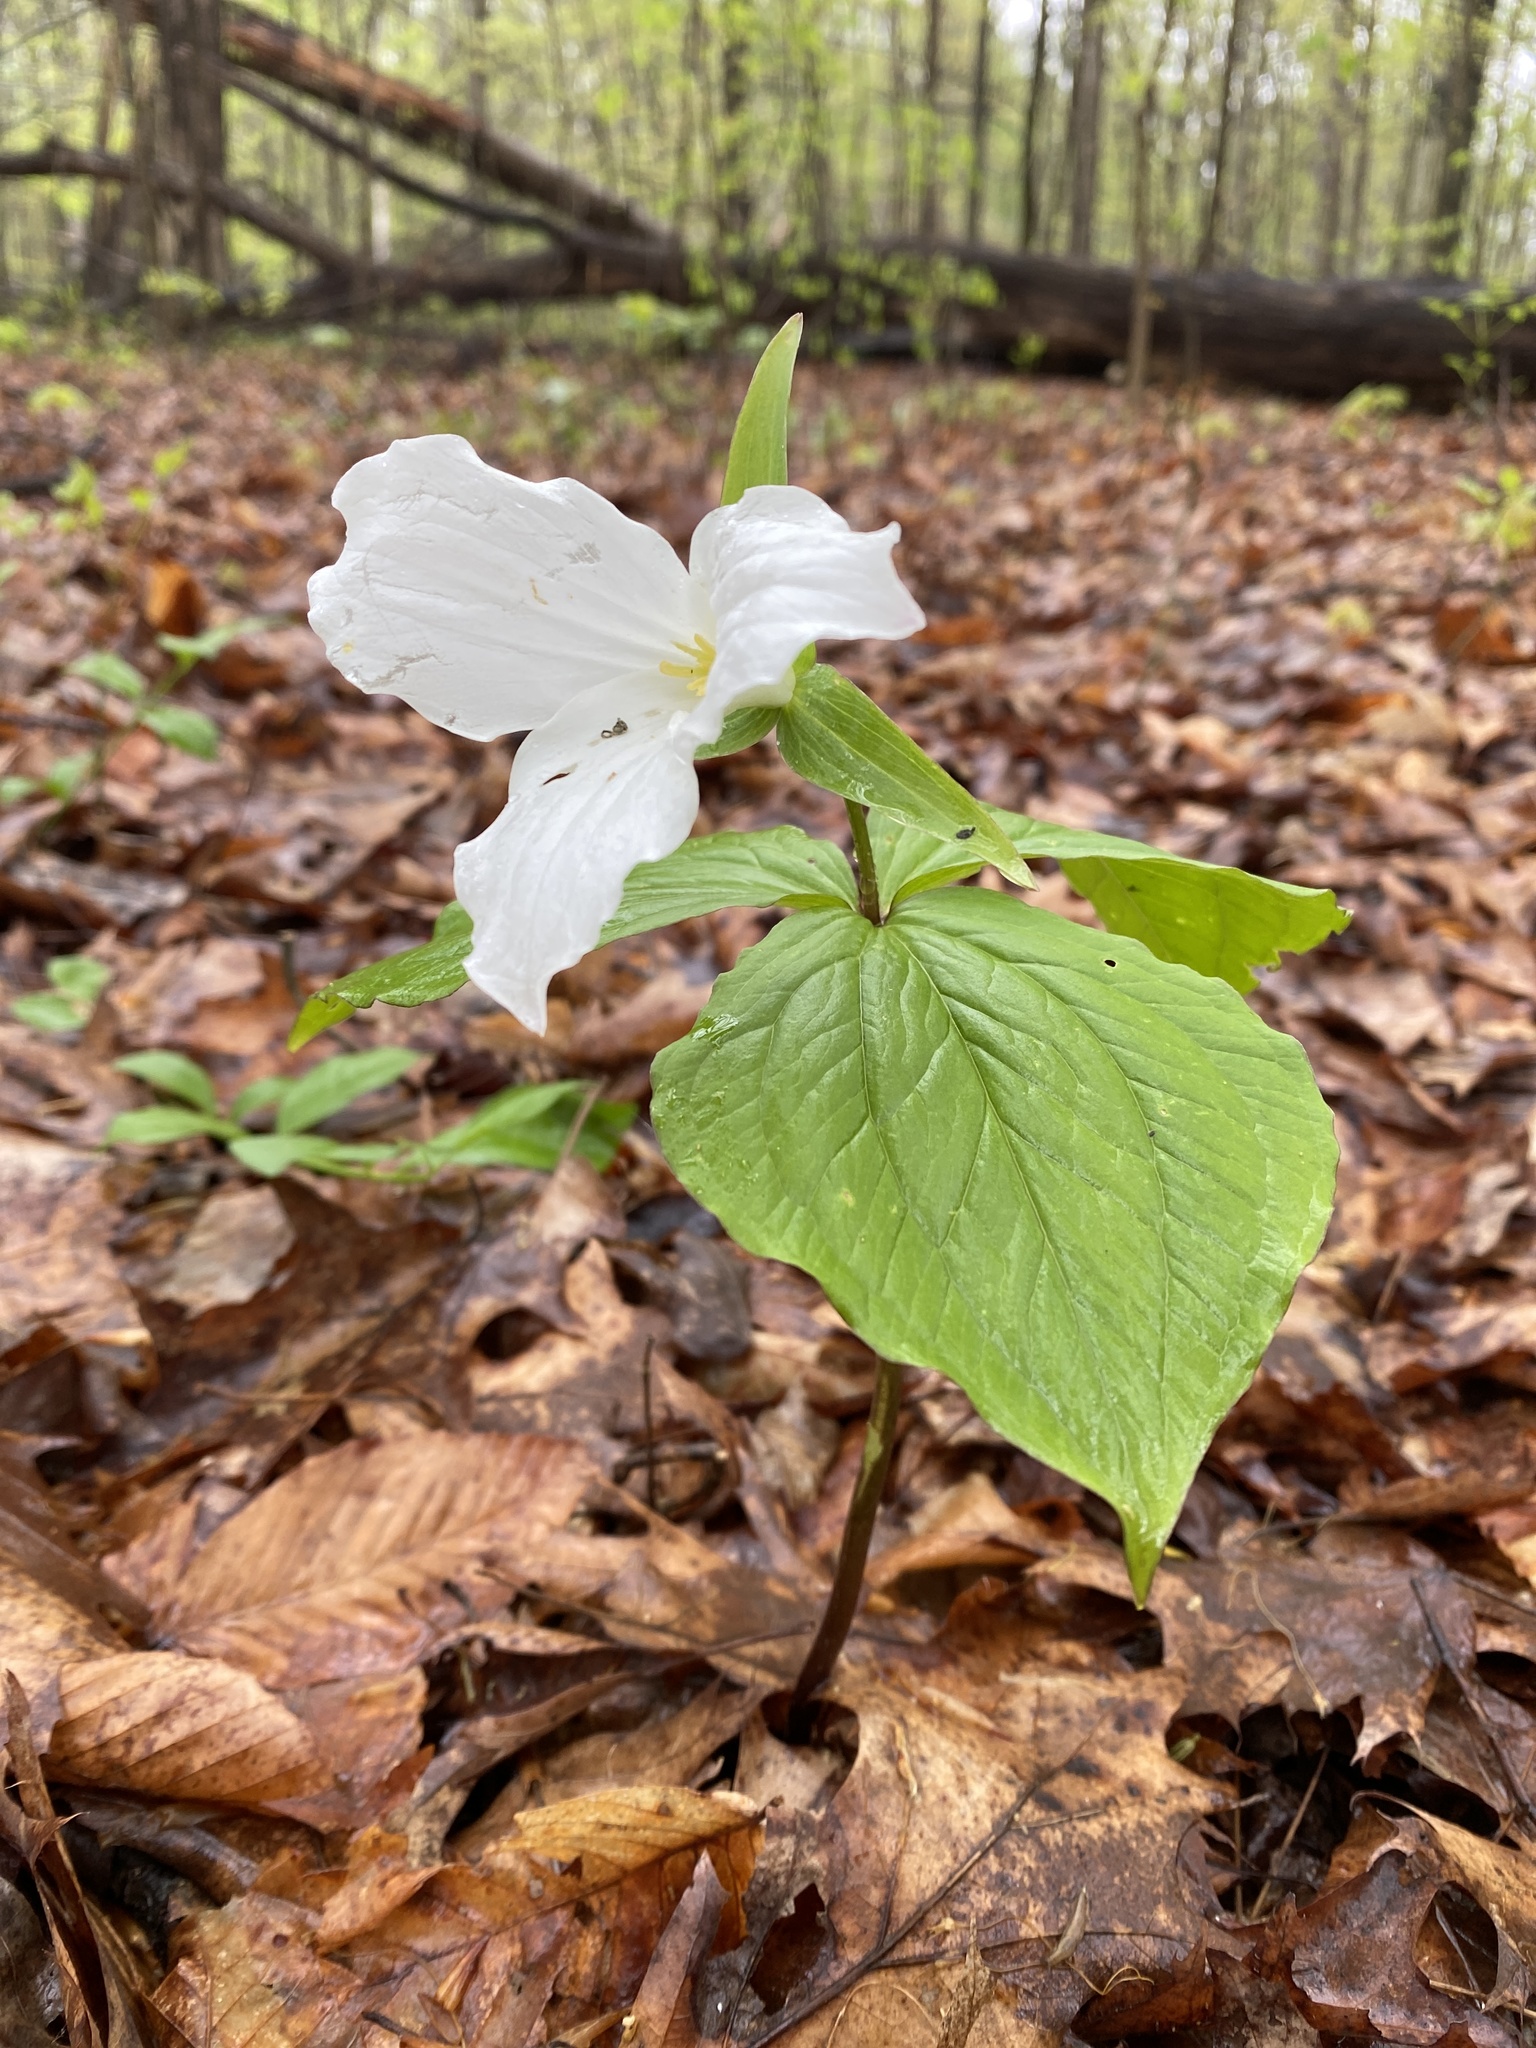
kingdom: Plantae
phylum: Tracheophyta
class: Liliopsida
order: Liliales
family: Melanthiaceae
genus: Trillium
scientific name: Trillium grandiflorum
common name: Great white trillium
